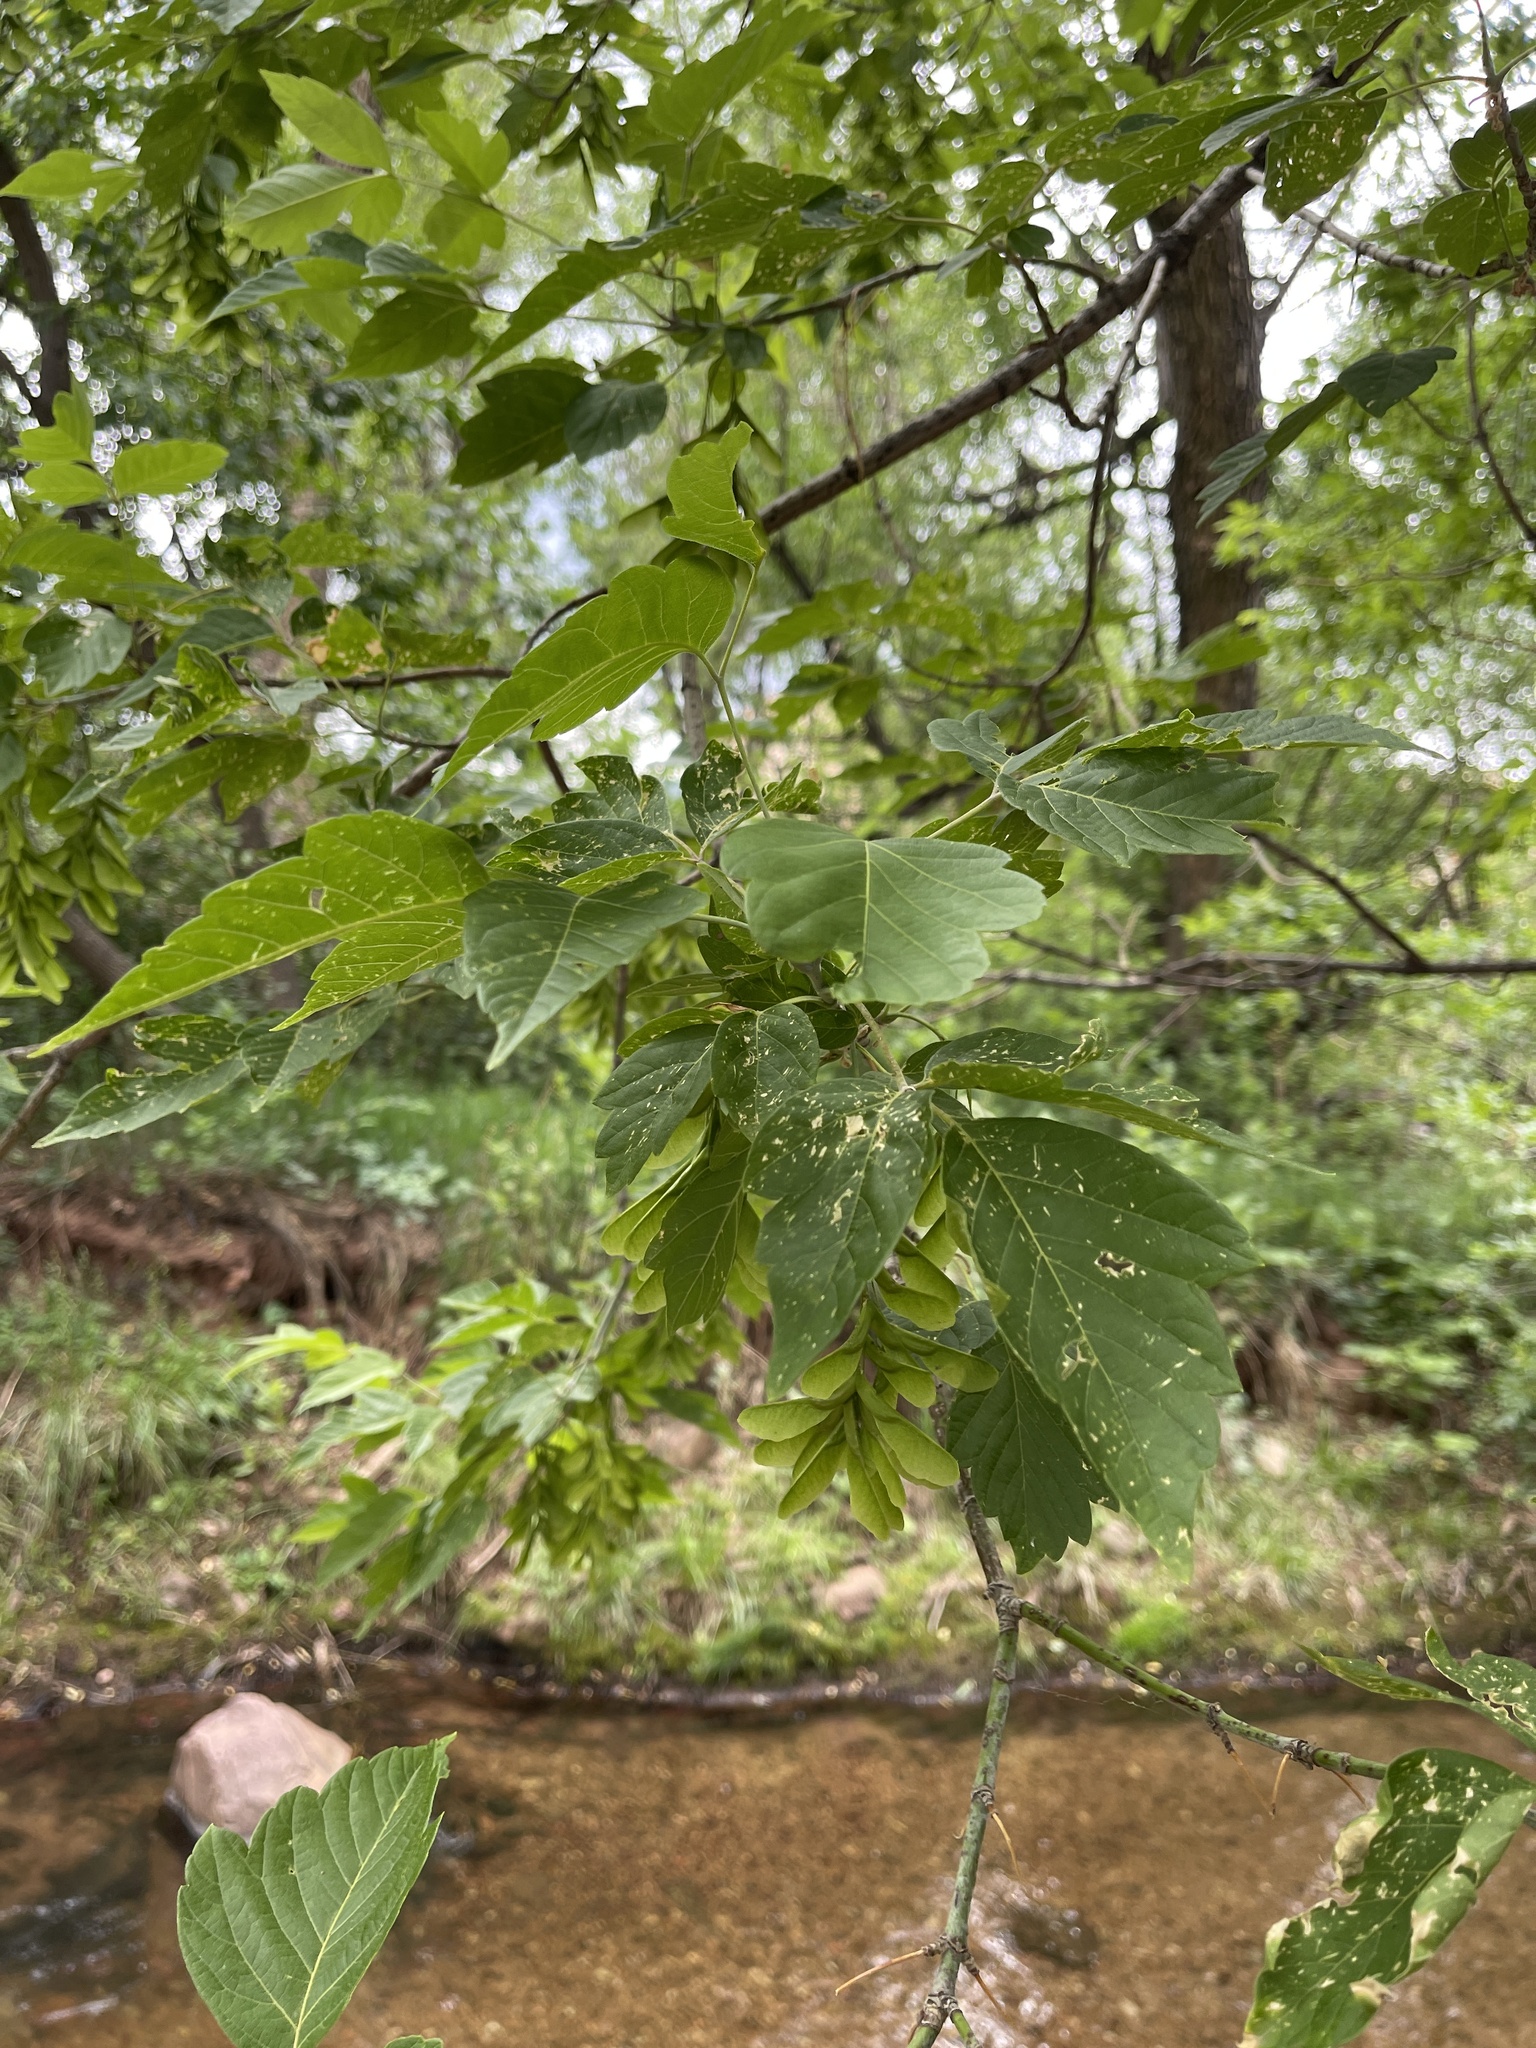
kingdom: Plantae
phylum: Tracheophyta
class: Magnoliopsida
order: Sapindales
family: Sapindaceae
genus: Acer
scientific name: Acer negundo
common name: Ashleaf maple
